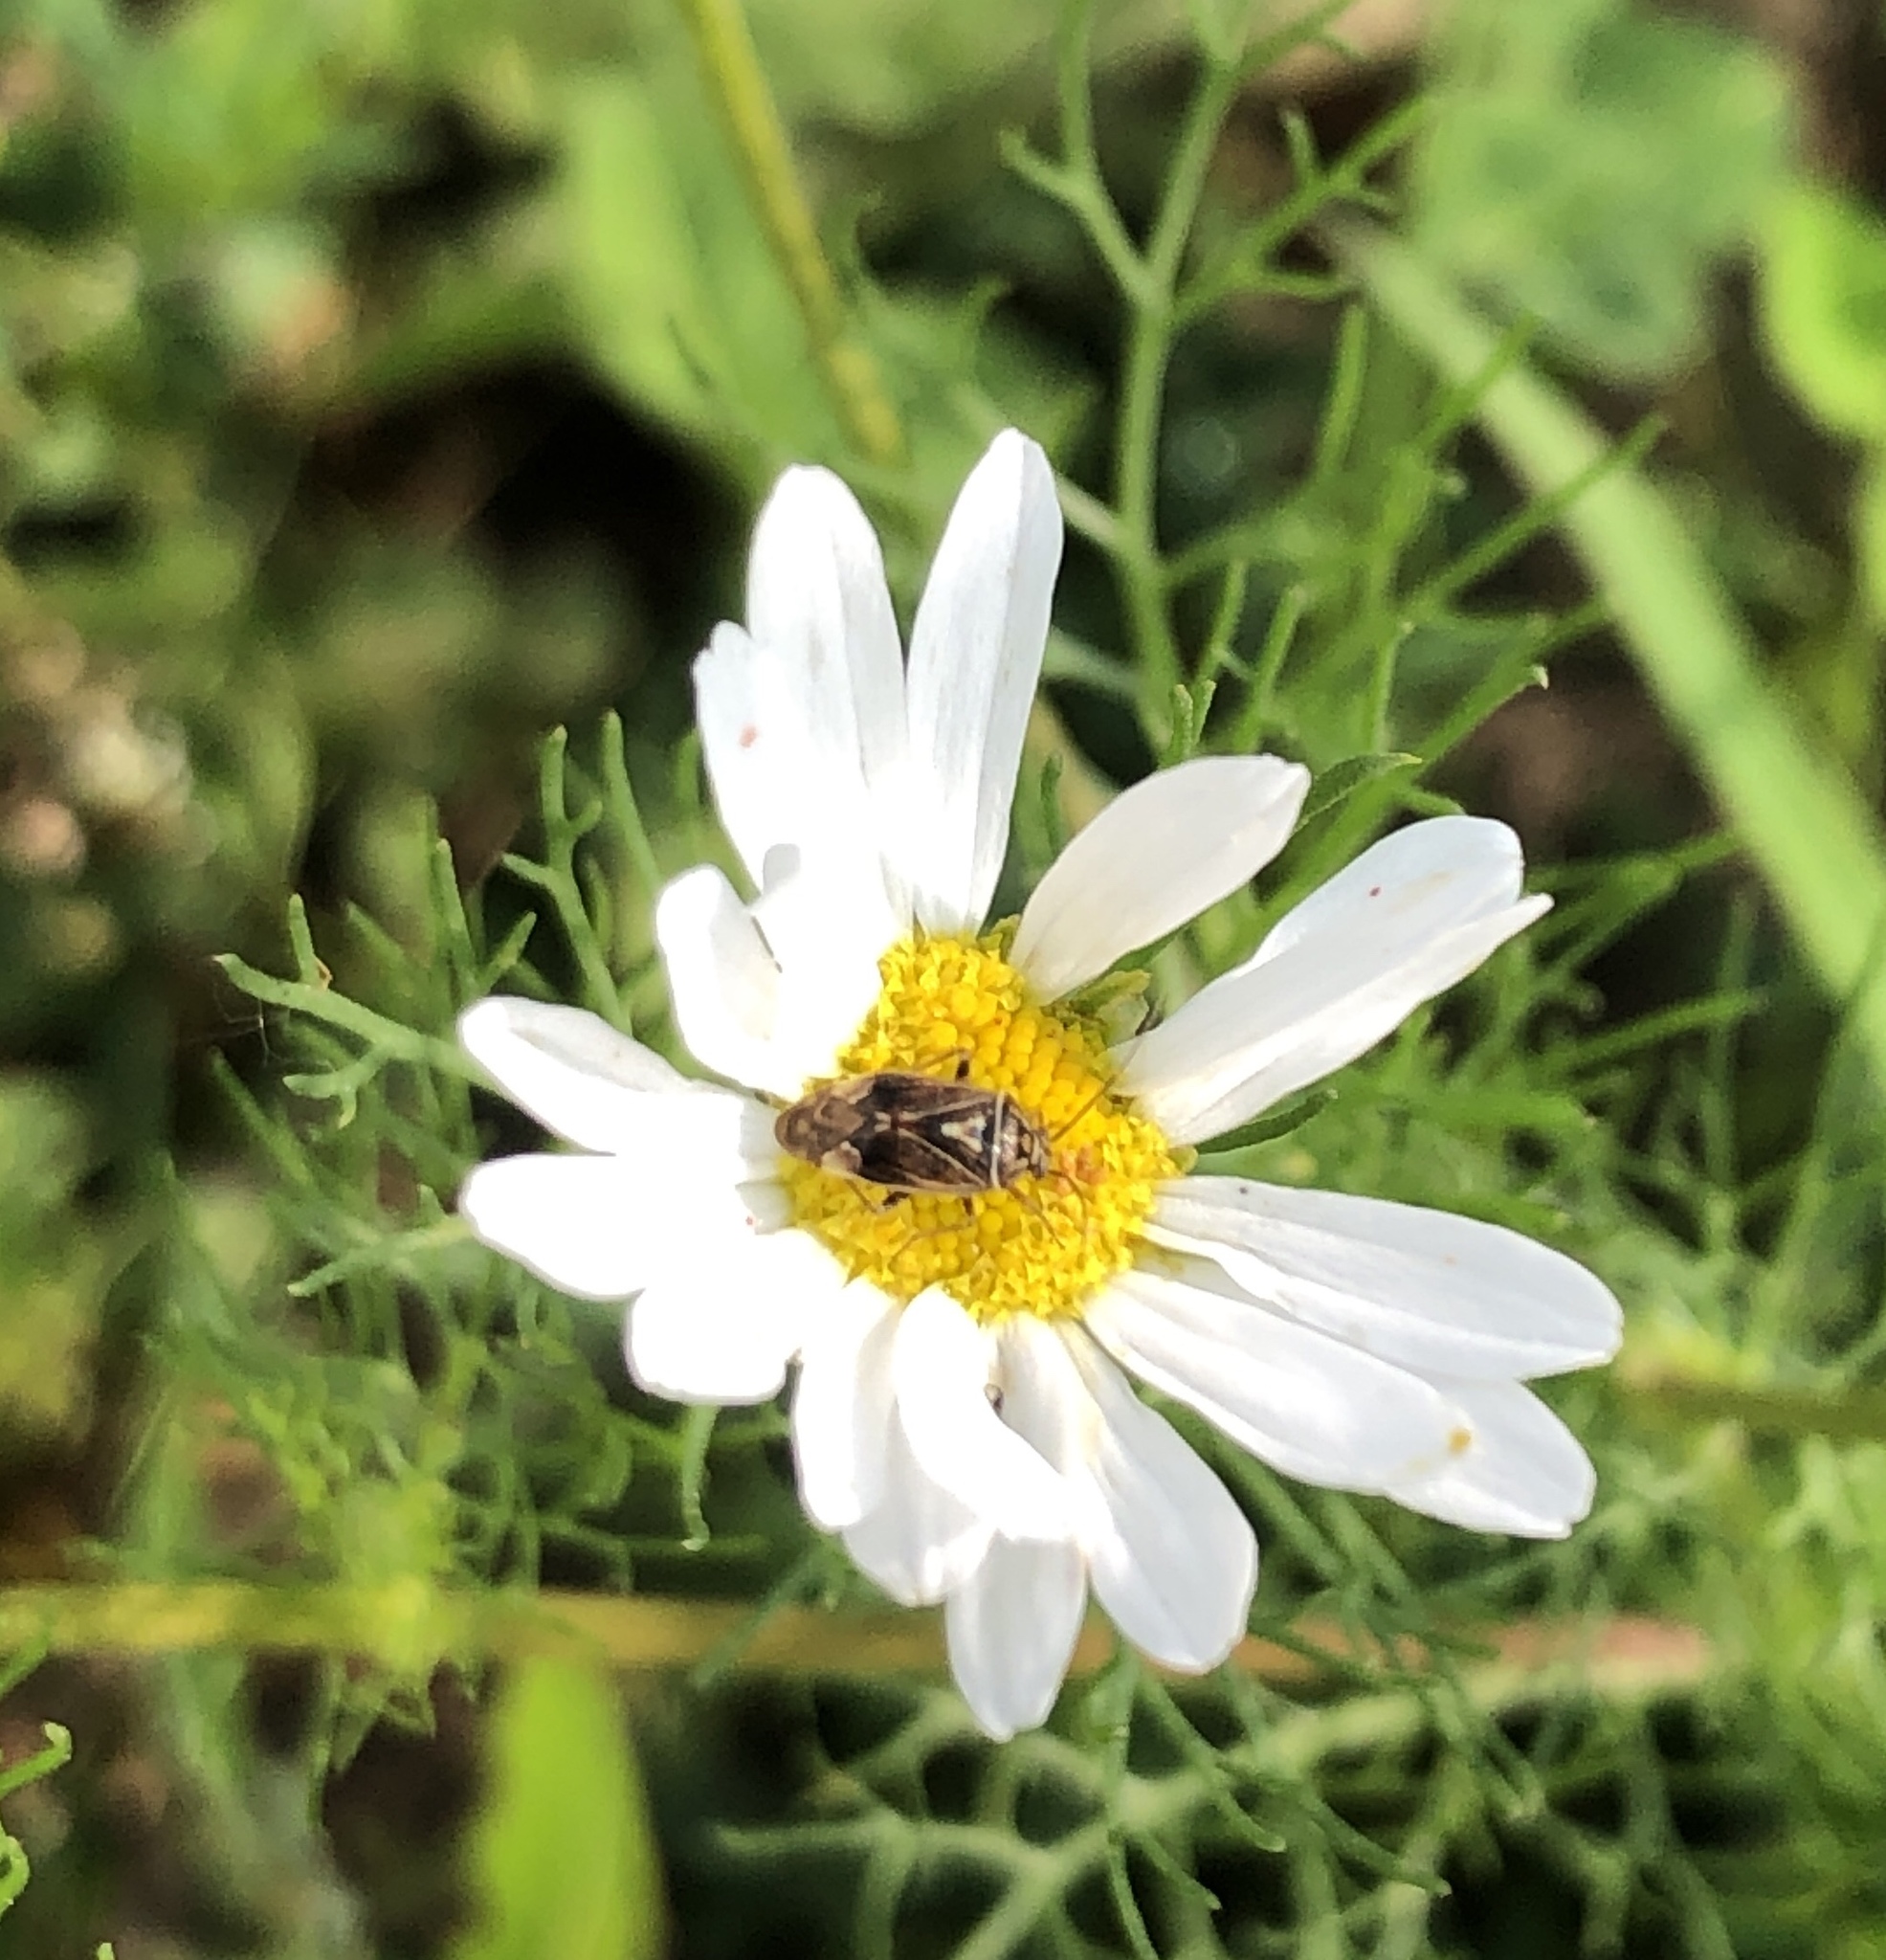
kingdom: Animalia
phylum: Arthropoda
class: Insecta
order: Hemiptera
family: Miridae
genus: Lygus
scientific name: Lygus lineolaris
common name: North american tarnished plant bug
